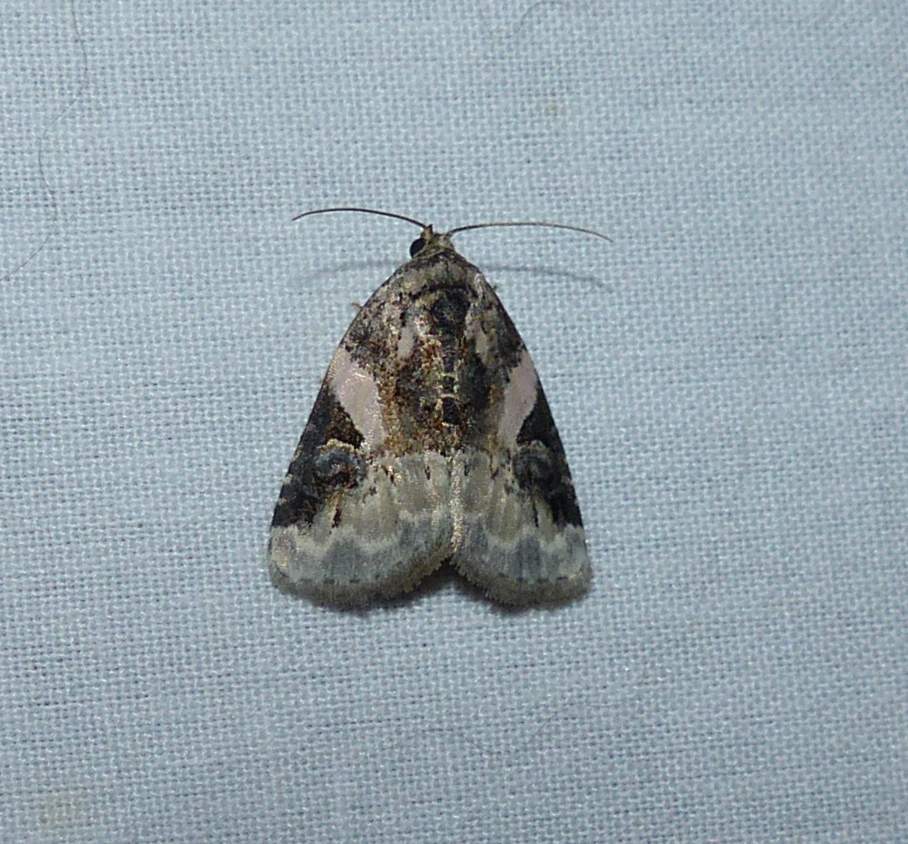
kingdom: Animalia
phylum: Arthropoda
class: Insecta
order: Lepidoptera
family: Noctuidae
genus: Pseudeustrotia
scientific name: Pseudeustrotia carneola
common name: Pink-barred lithacodia moth
